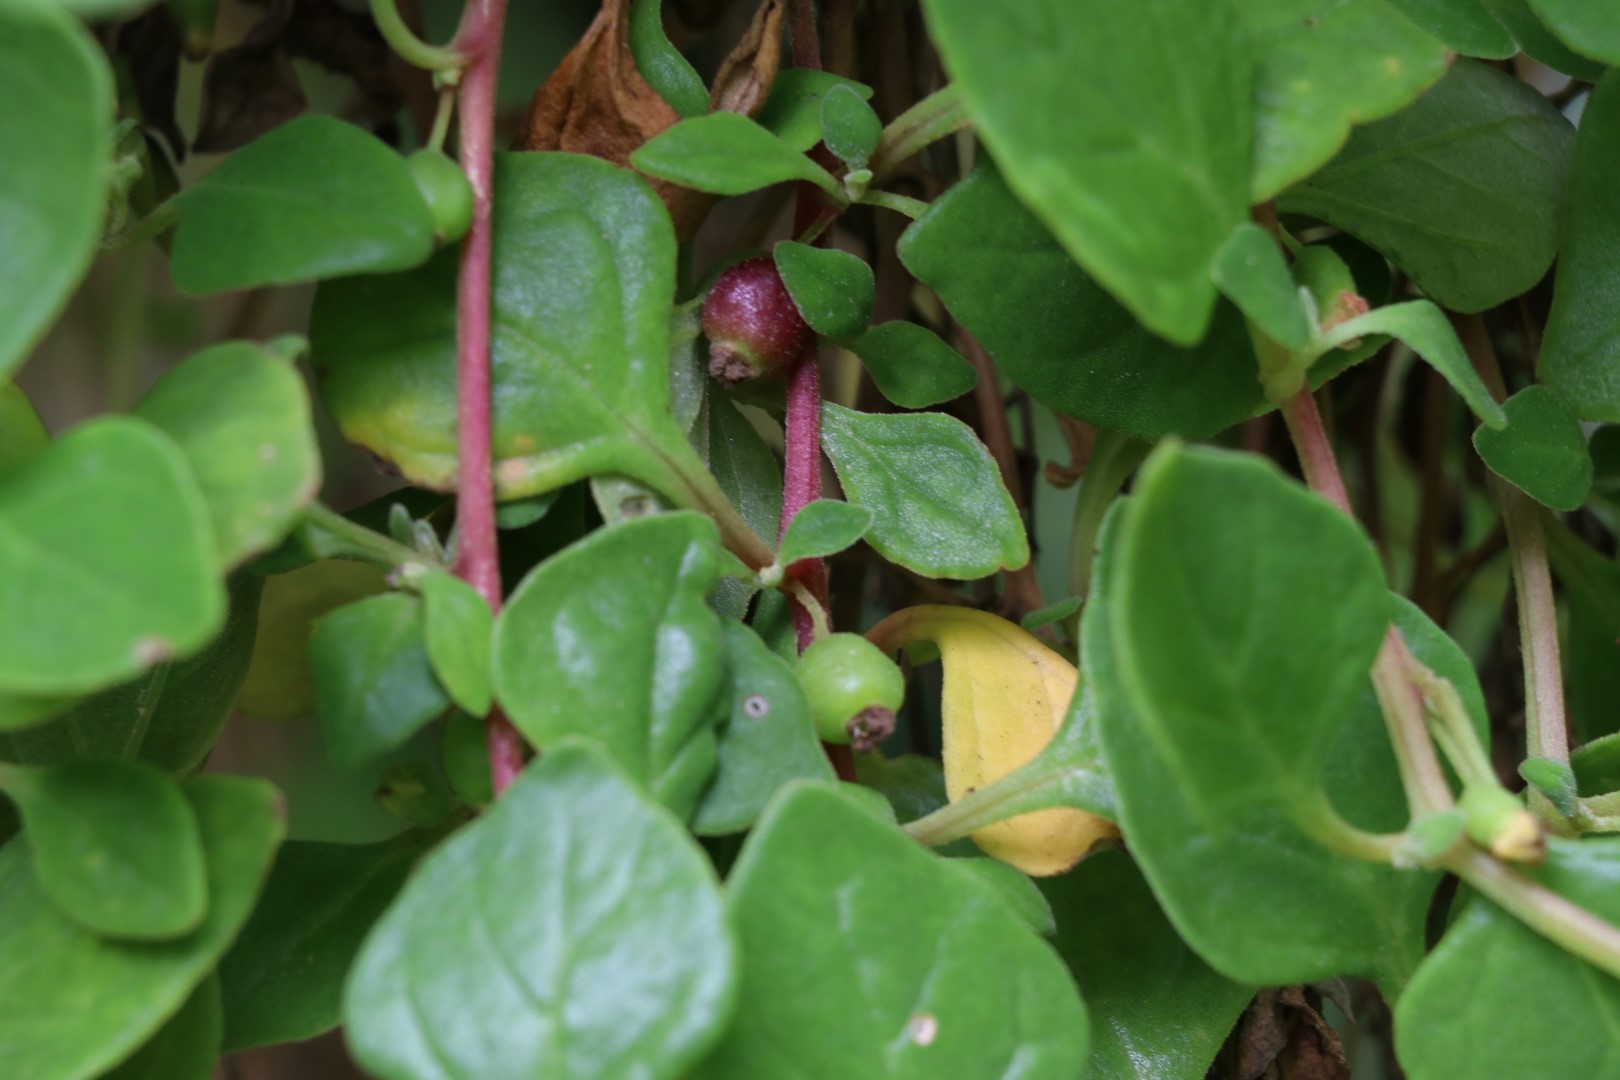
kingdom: Plantae
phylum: Tracheophyta
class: Magnoliopsida
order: Caryophyllales
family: Aizoaceae
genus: Tetragonia
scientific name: Tetragonia implexicoma
